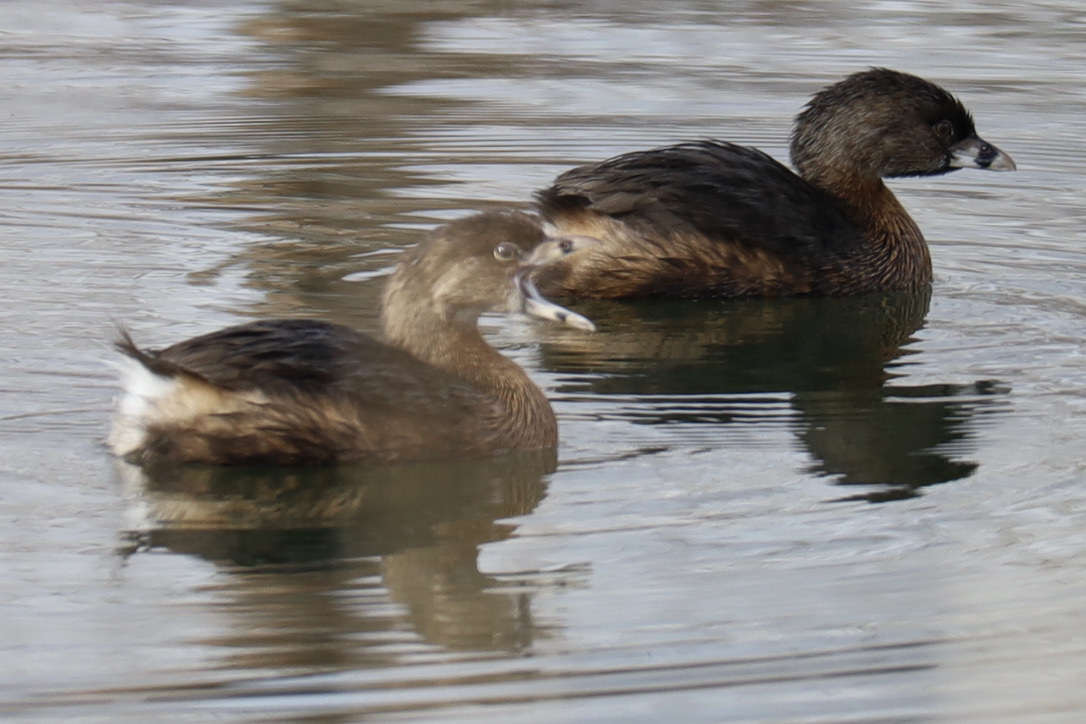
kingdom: Animalia
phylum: Chordata
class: Aves
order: Podicipediformes
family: Podicipedidae
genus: Podilymbus
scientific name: Podilymbus podiceps
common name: Pied-billed grebe
